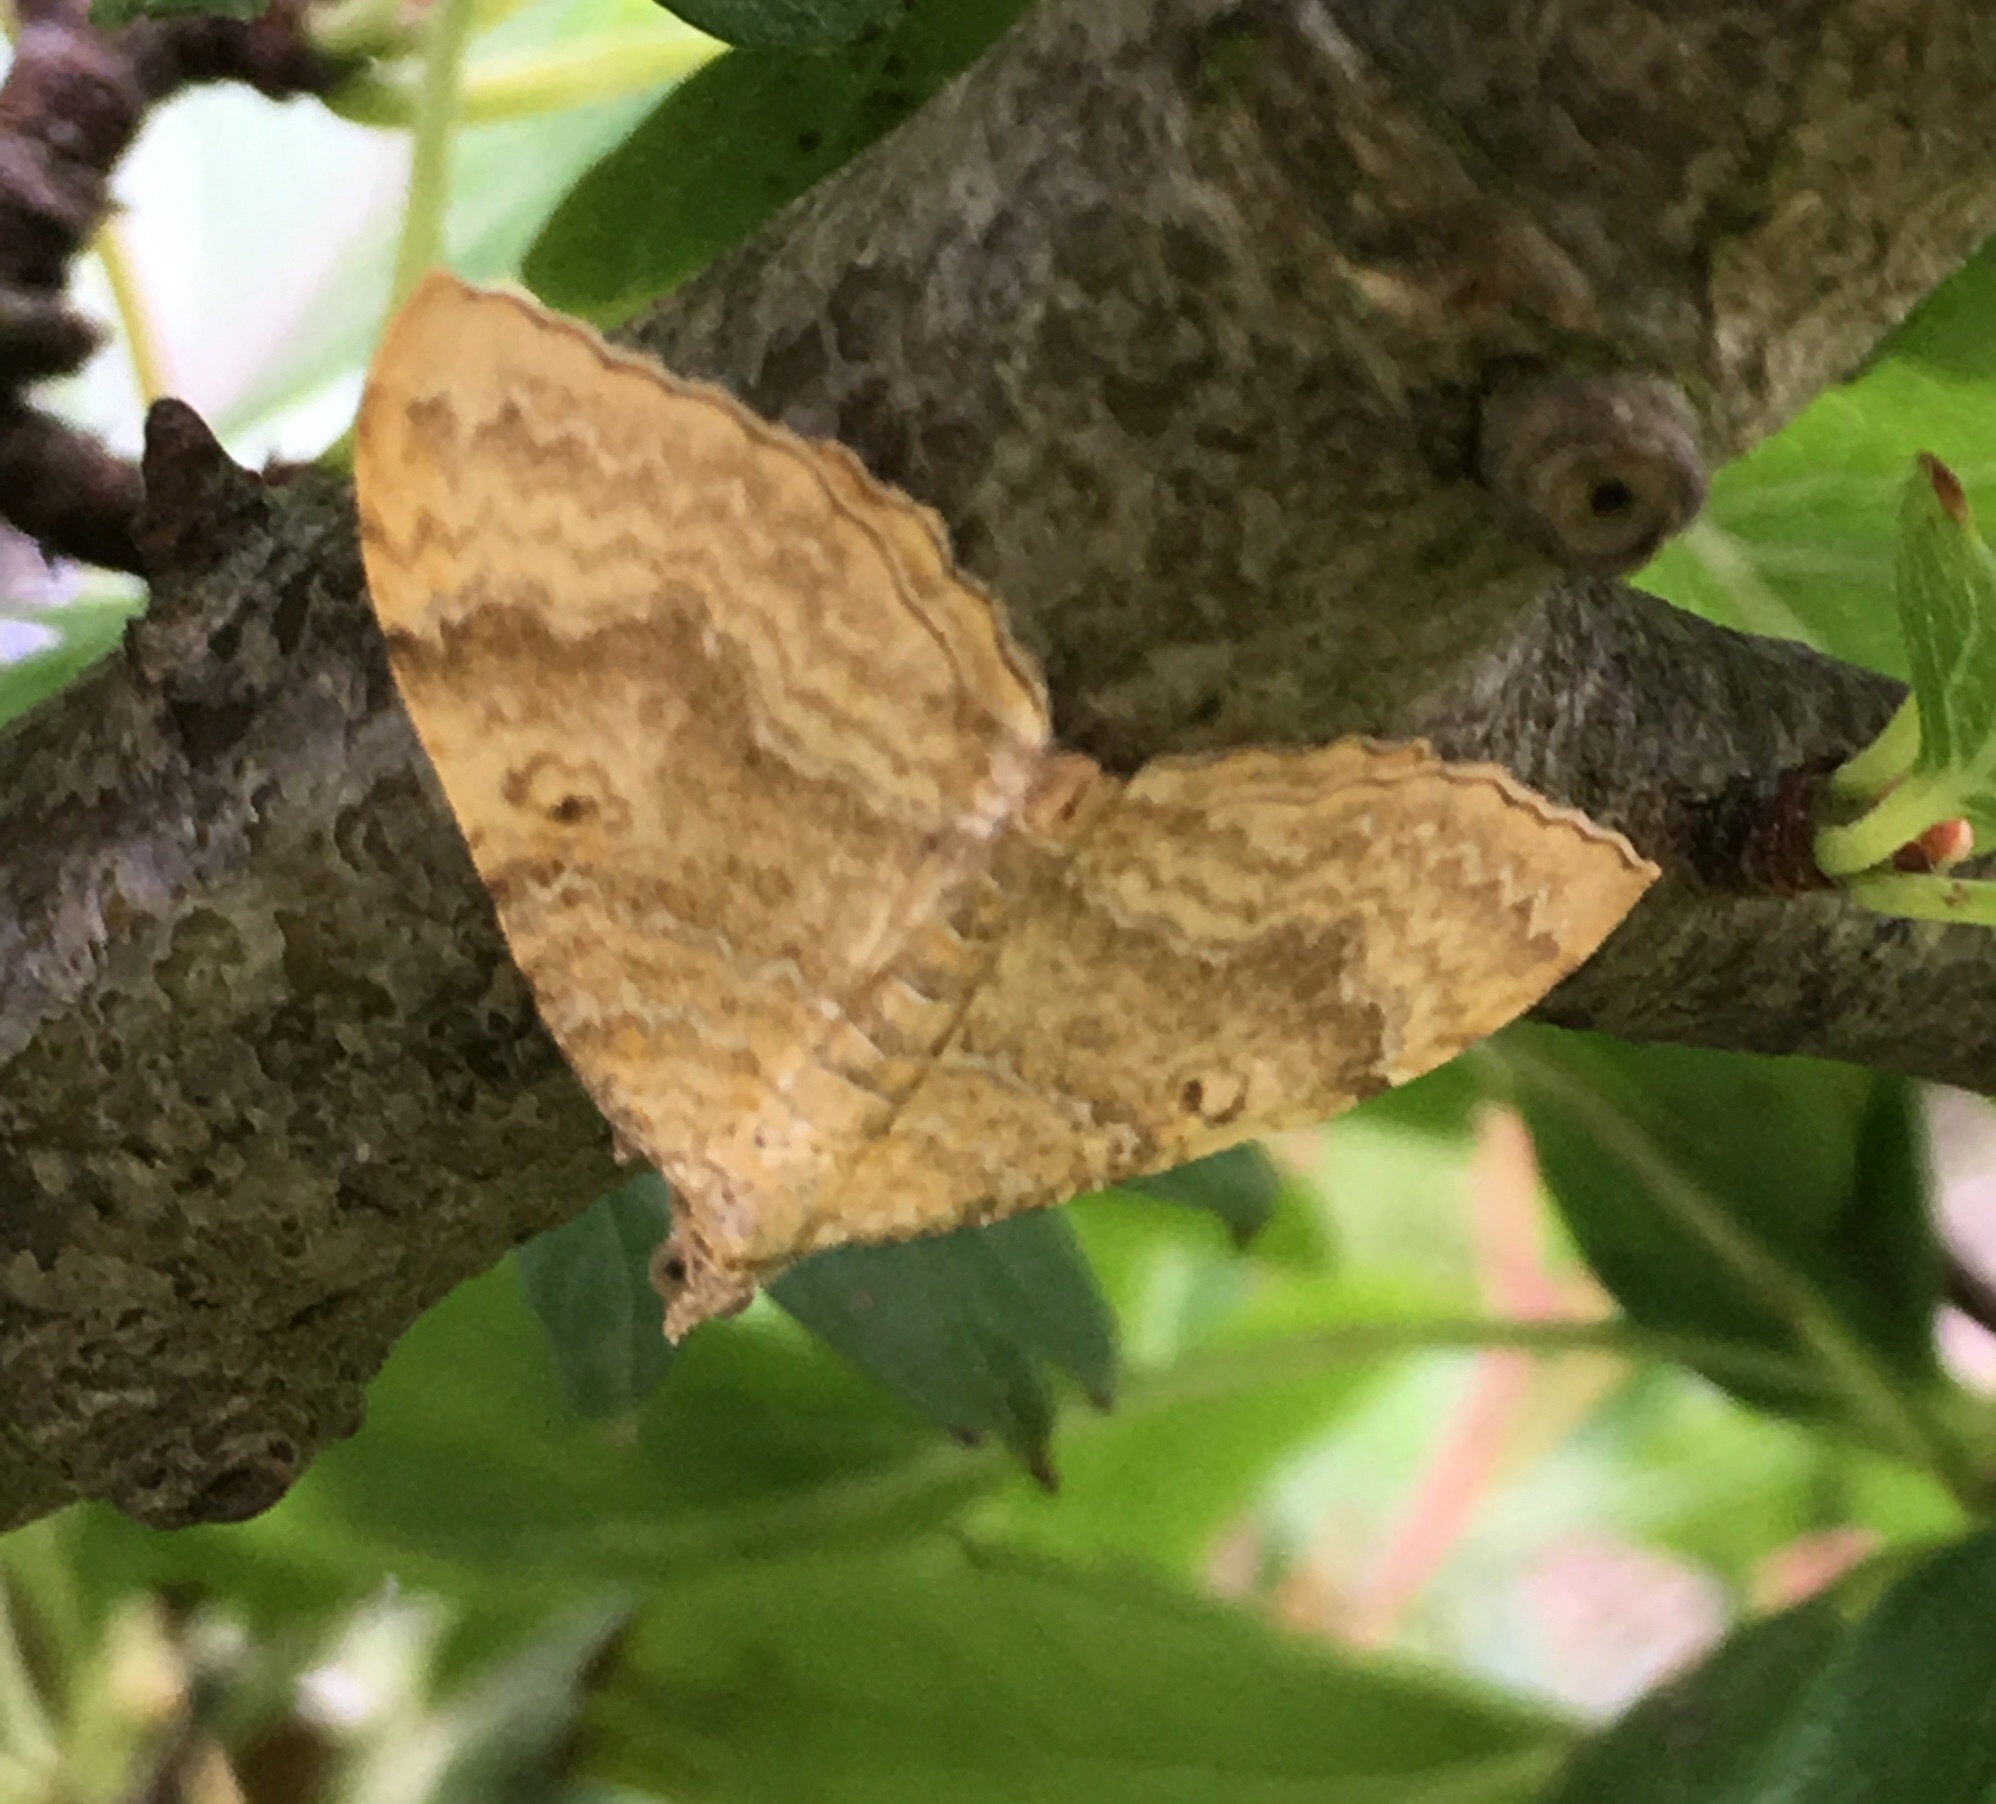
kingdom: Animalia
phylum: Arthropoda
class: Insecta
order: Lepidoptera
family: Geometridae
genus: Camptogramma
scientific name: Camptogramma bilineata
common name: Yellow shell
